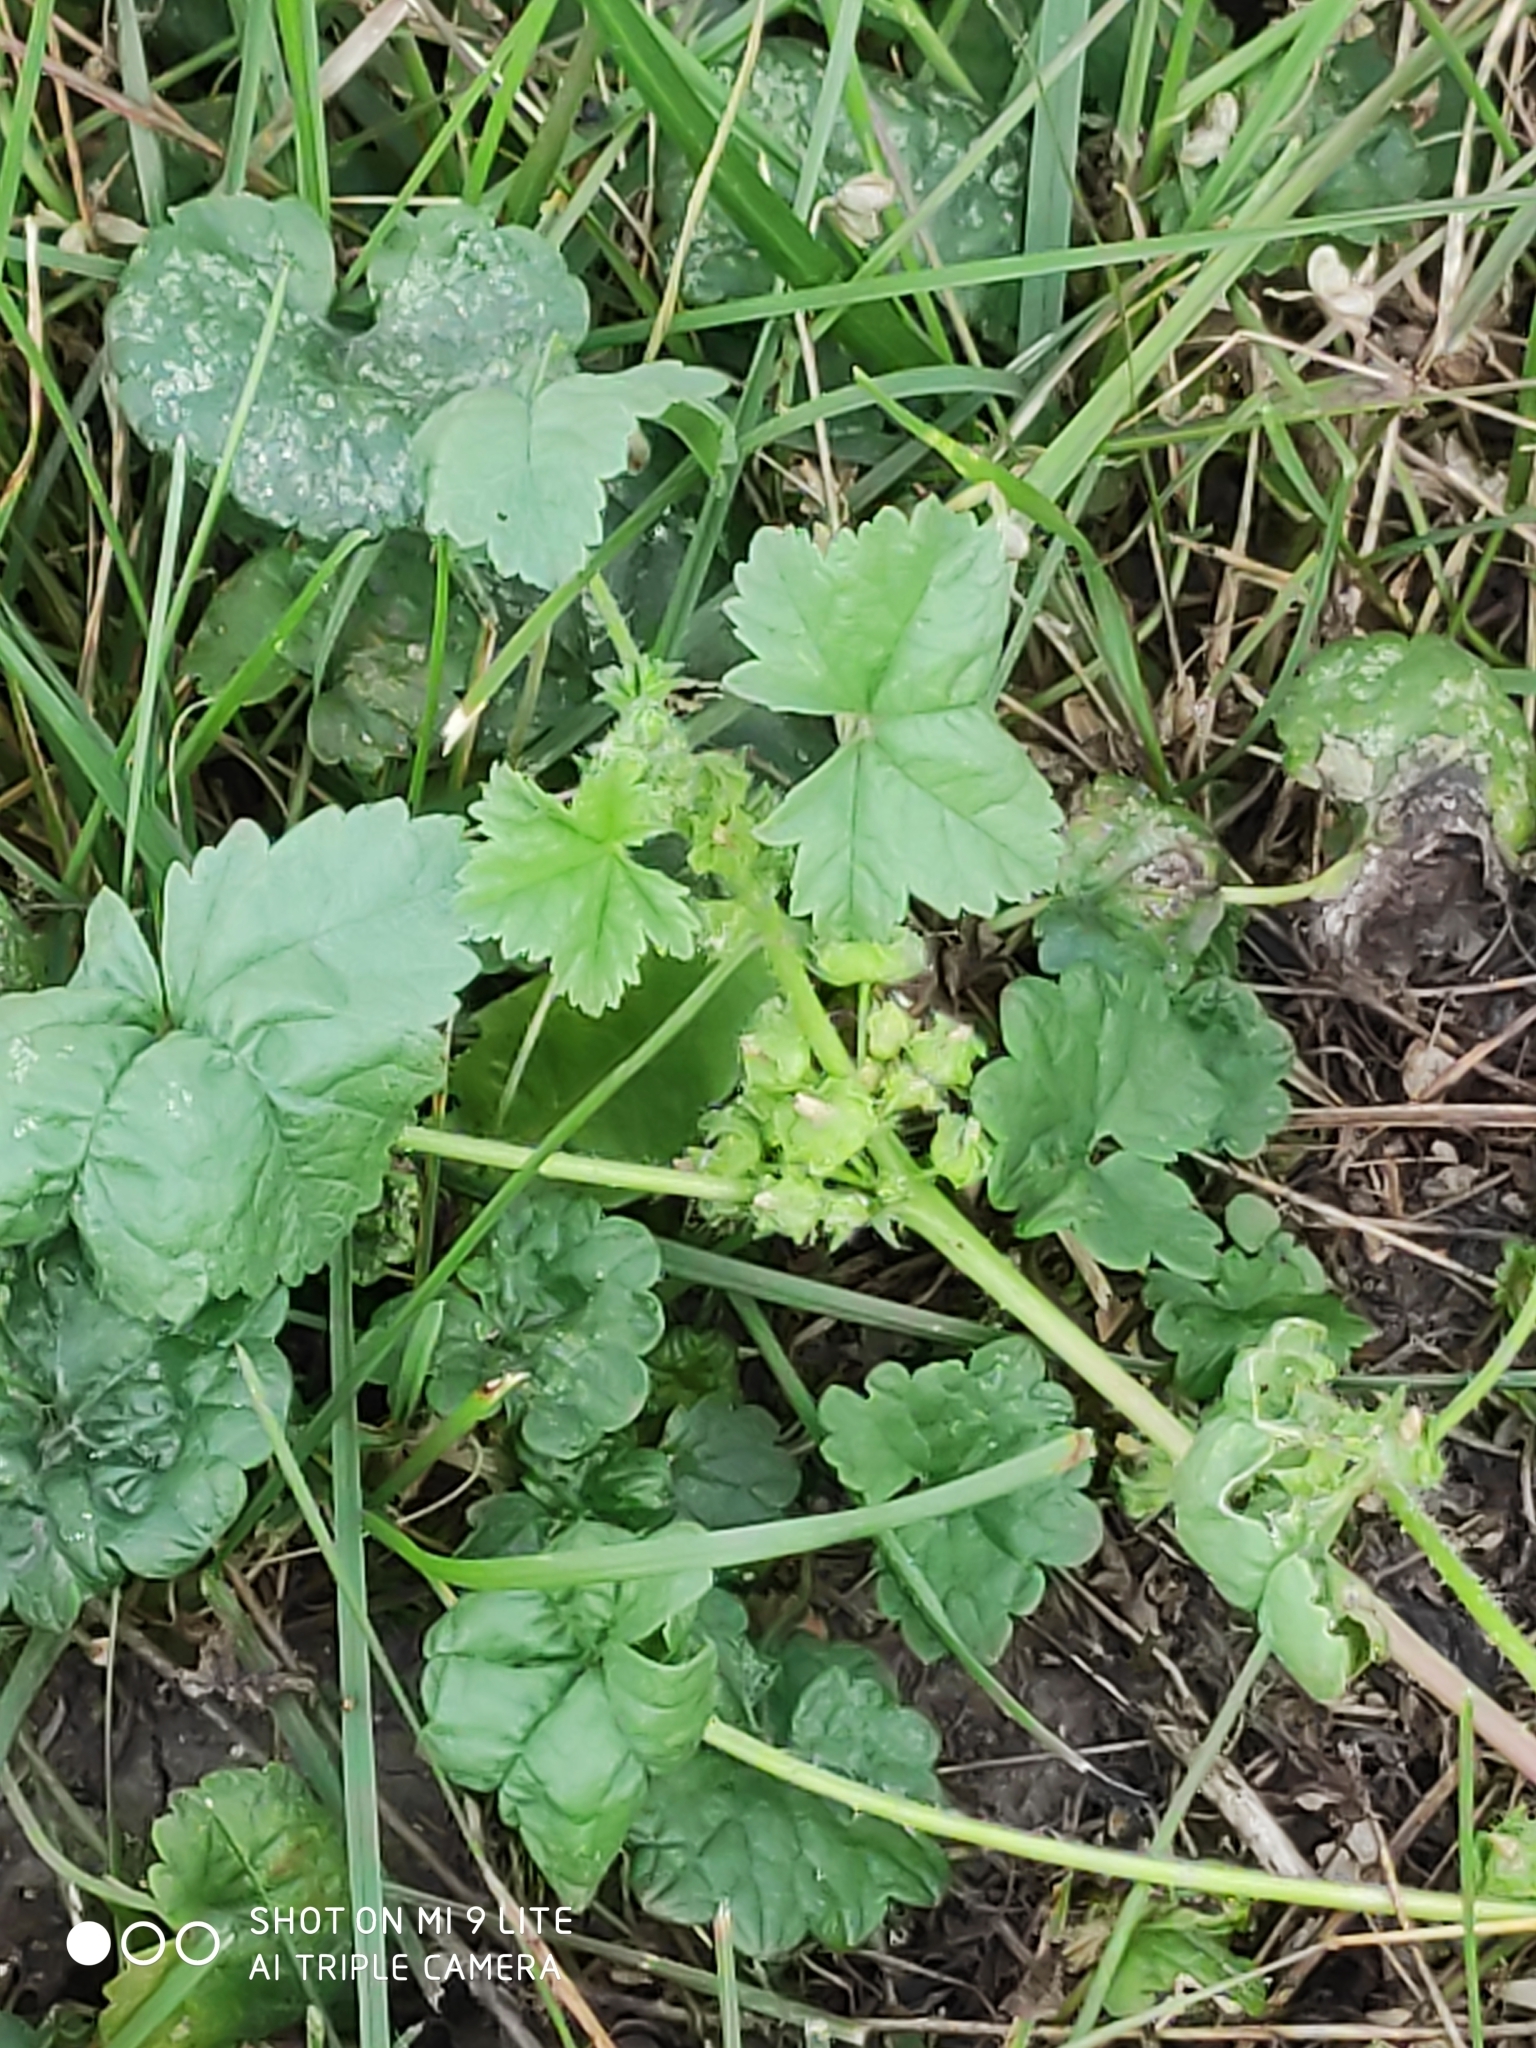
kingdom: Plantae
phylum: Tracheophyta
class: Magnoliopsida
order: Malvales
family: Malvaceae
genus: Malva
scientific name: Malva pusilla
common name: Small mallow
